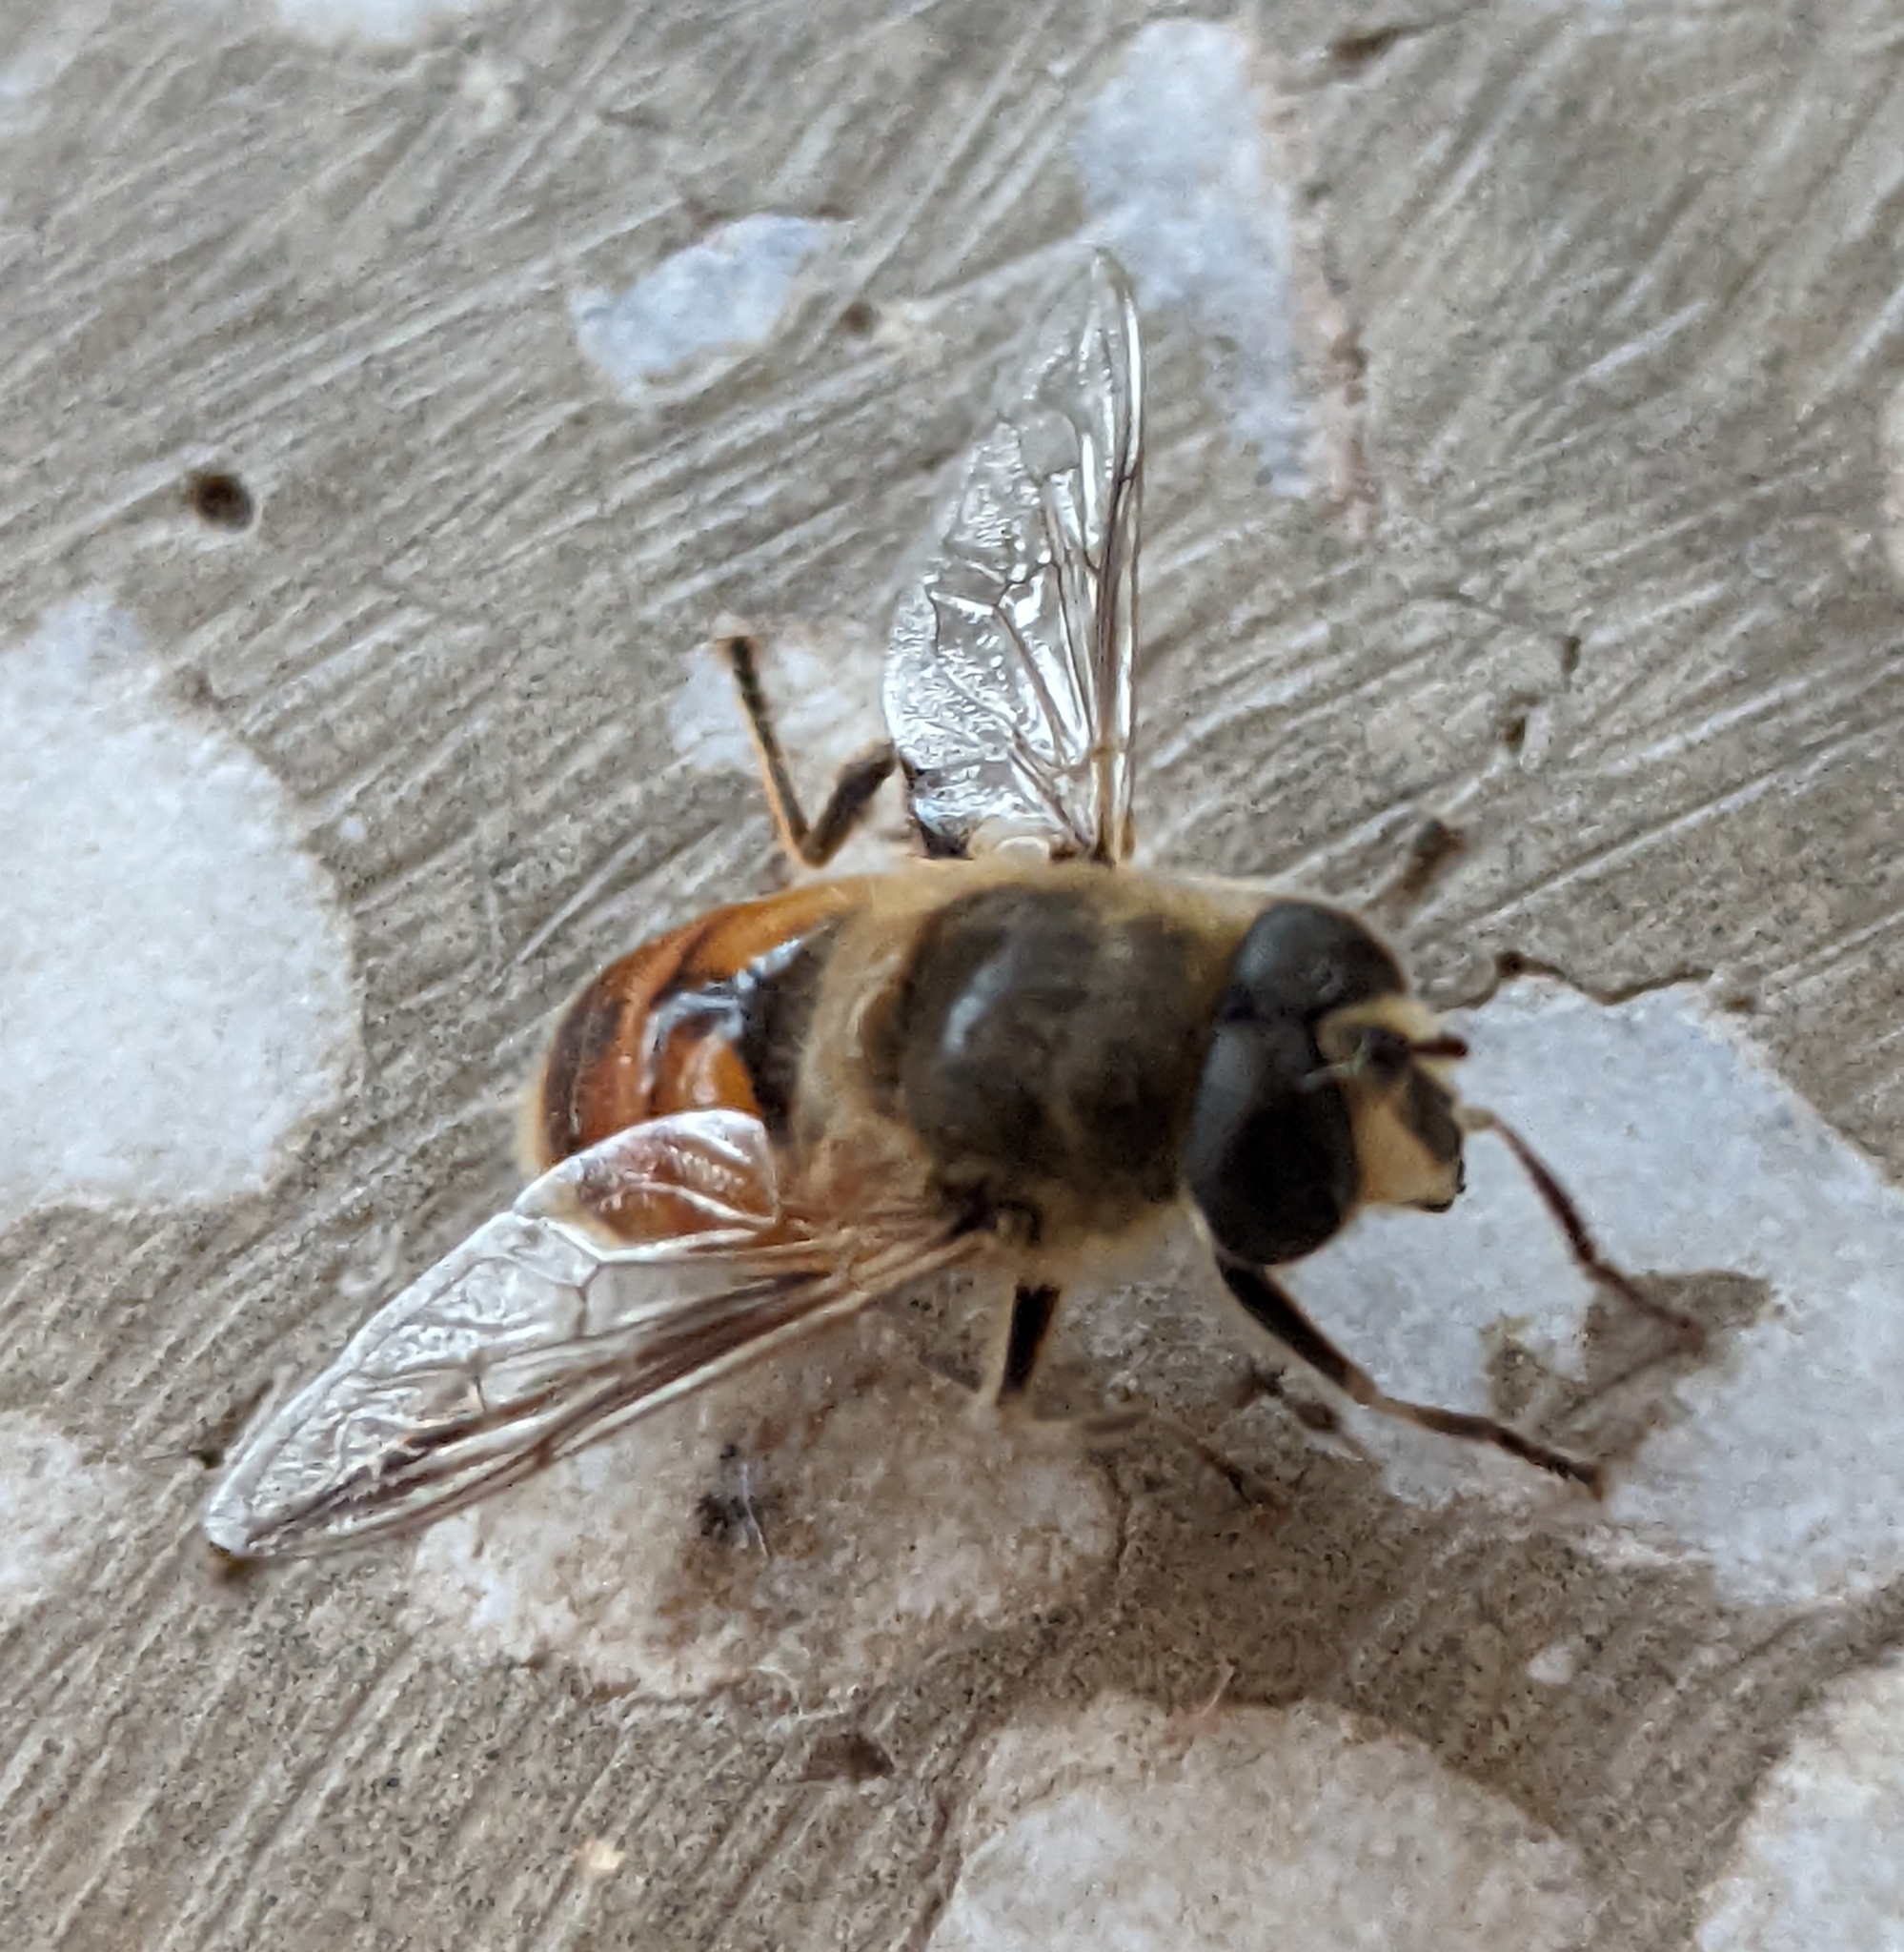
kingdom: Animalia
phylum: Arthropoda
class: Insecta
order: Diptera
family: Syrphidae
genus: Eristalis
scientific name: Eristalis tenax
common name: Drone fly
